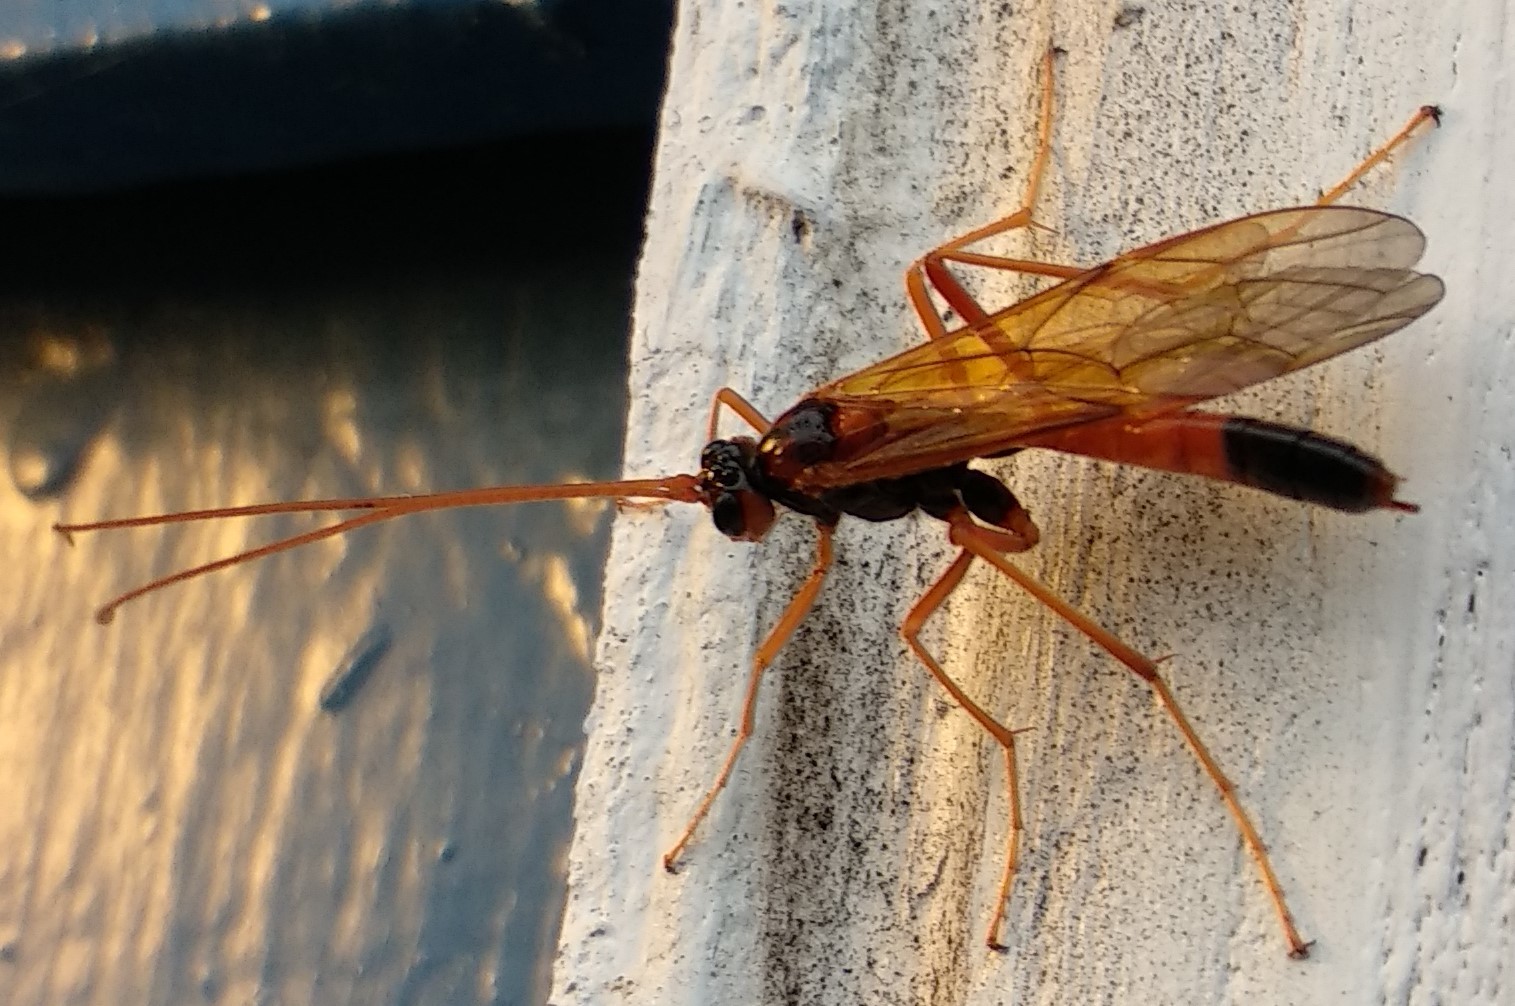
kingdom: Animalia
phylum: Arthropoda
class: Insecta
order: Hymenoptera
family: Ichneumonidae
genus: Opheltes
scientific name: Opheltes glaucopterus
